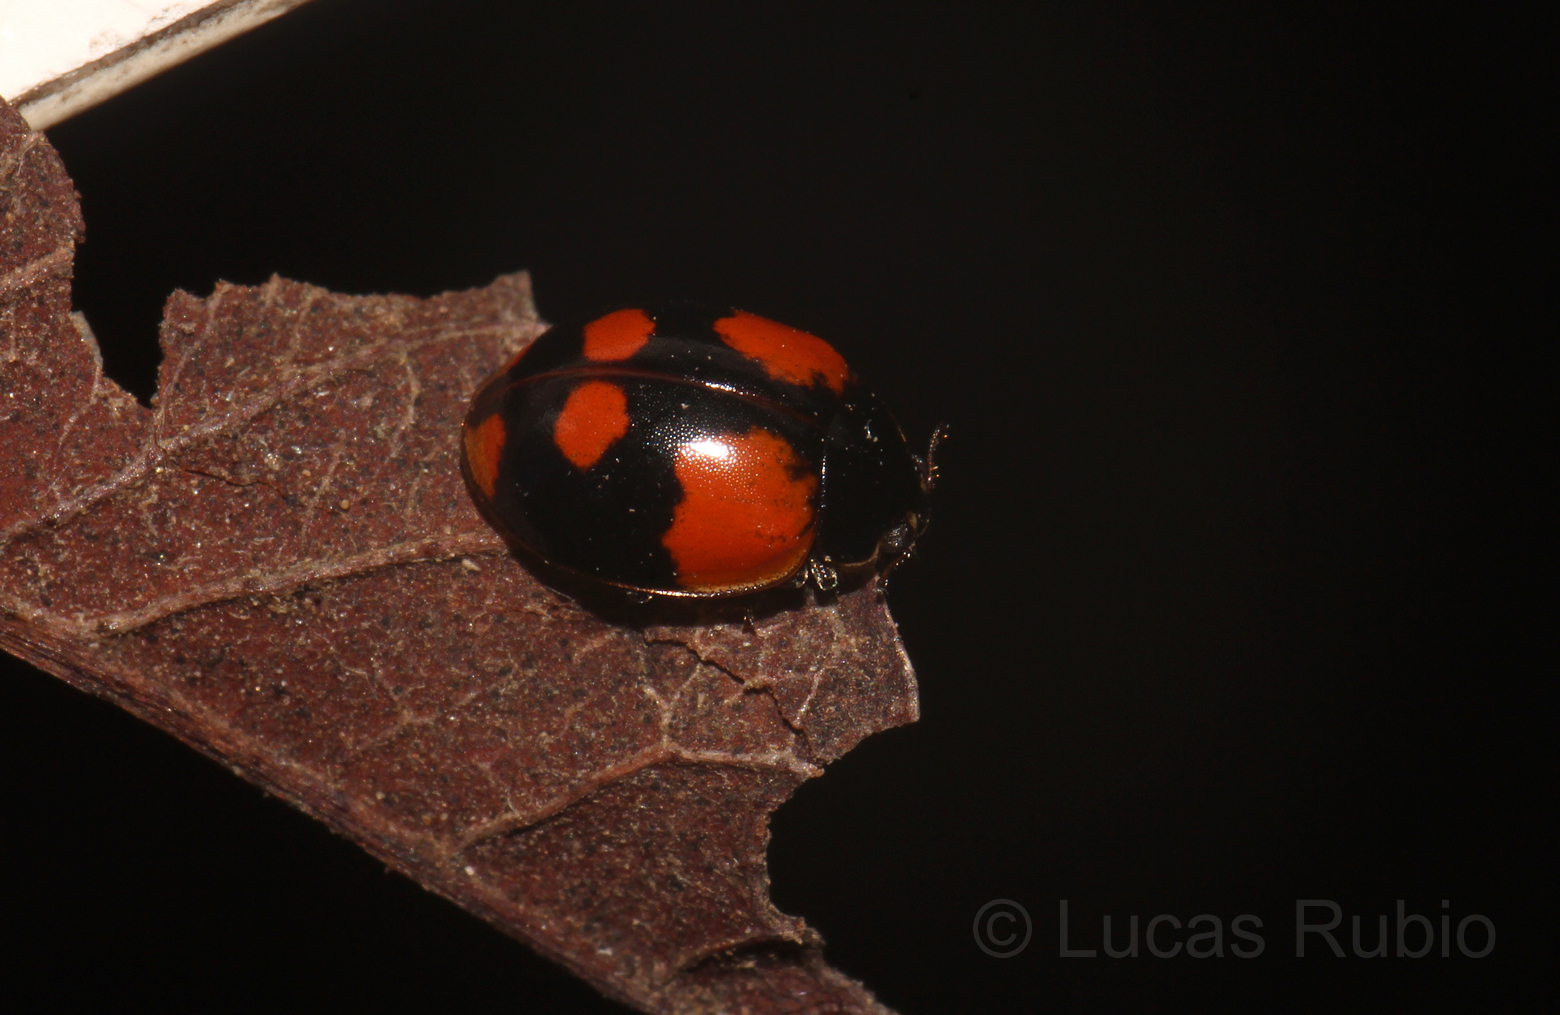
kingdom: Animalia
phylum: Arthropoda
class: Insecta
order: Coleoptera
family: Coccinellidae
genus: Adalia
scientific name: Adalia bipunctata
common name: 2-spot ladybird
